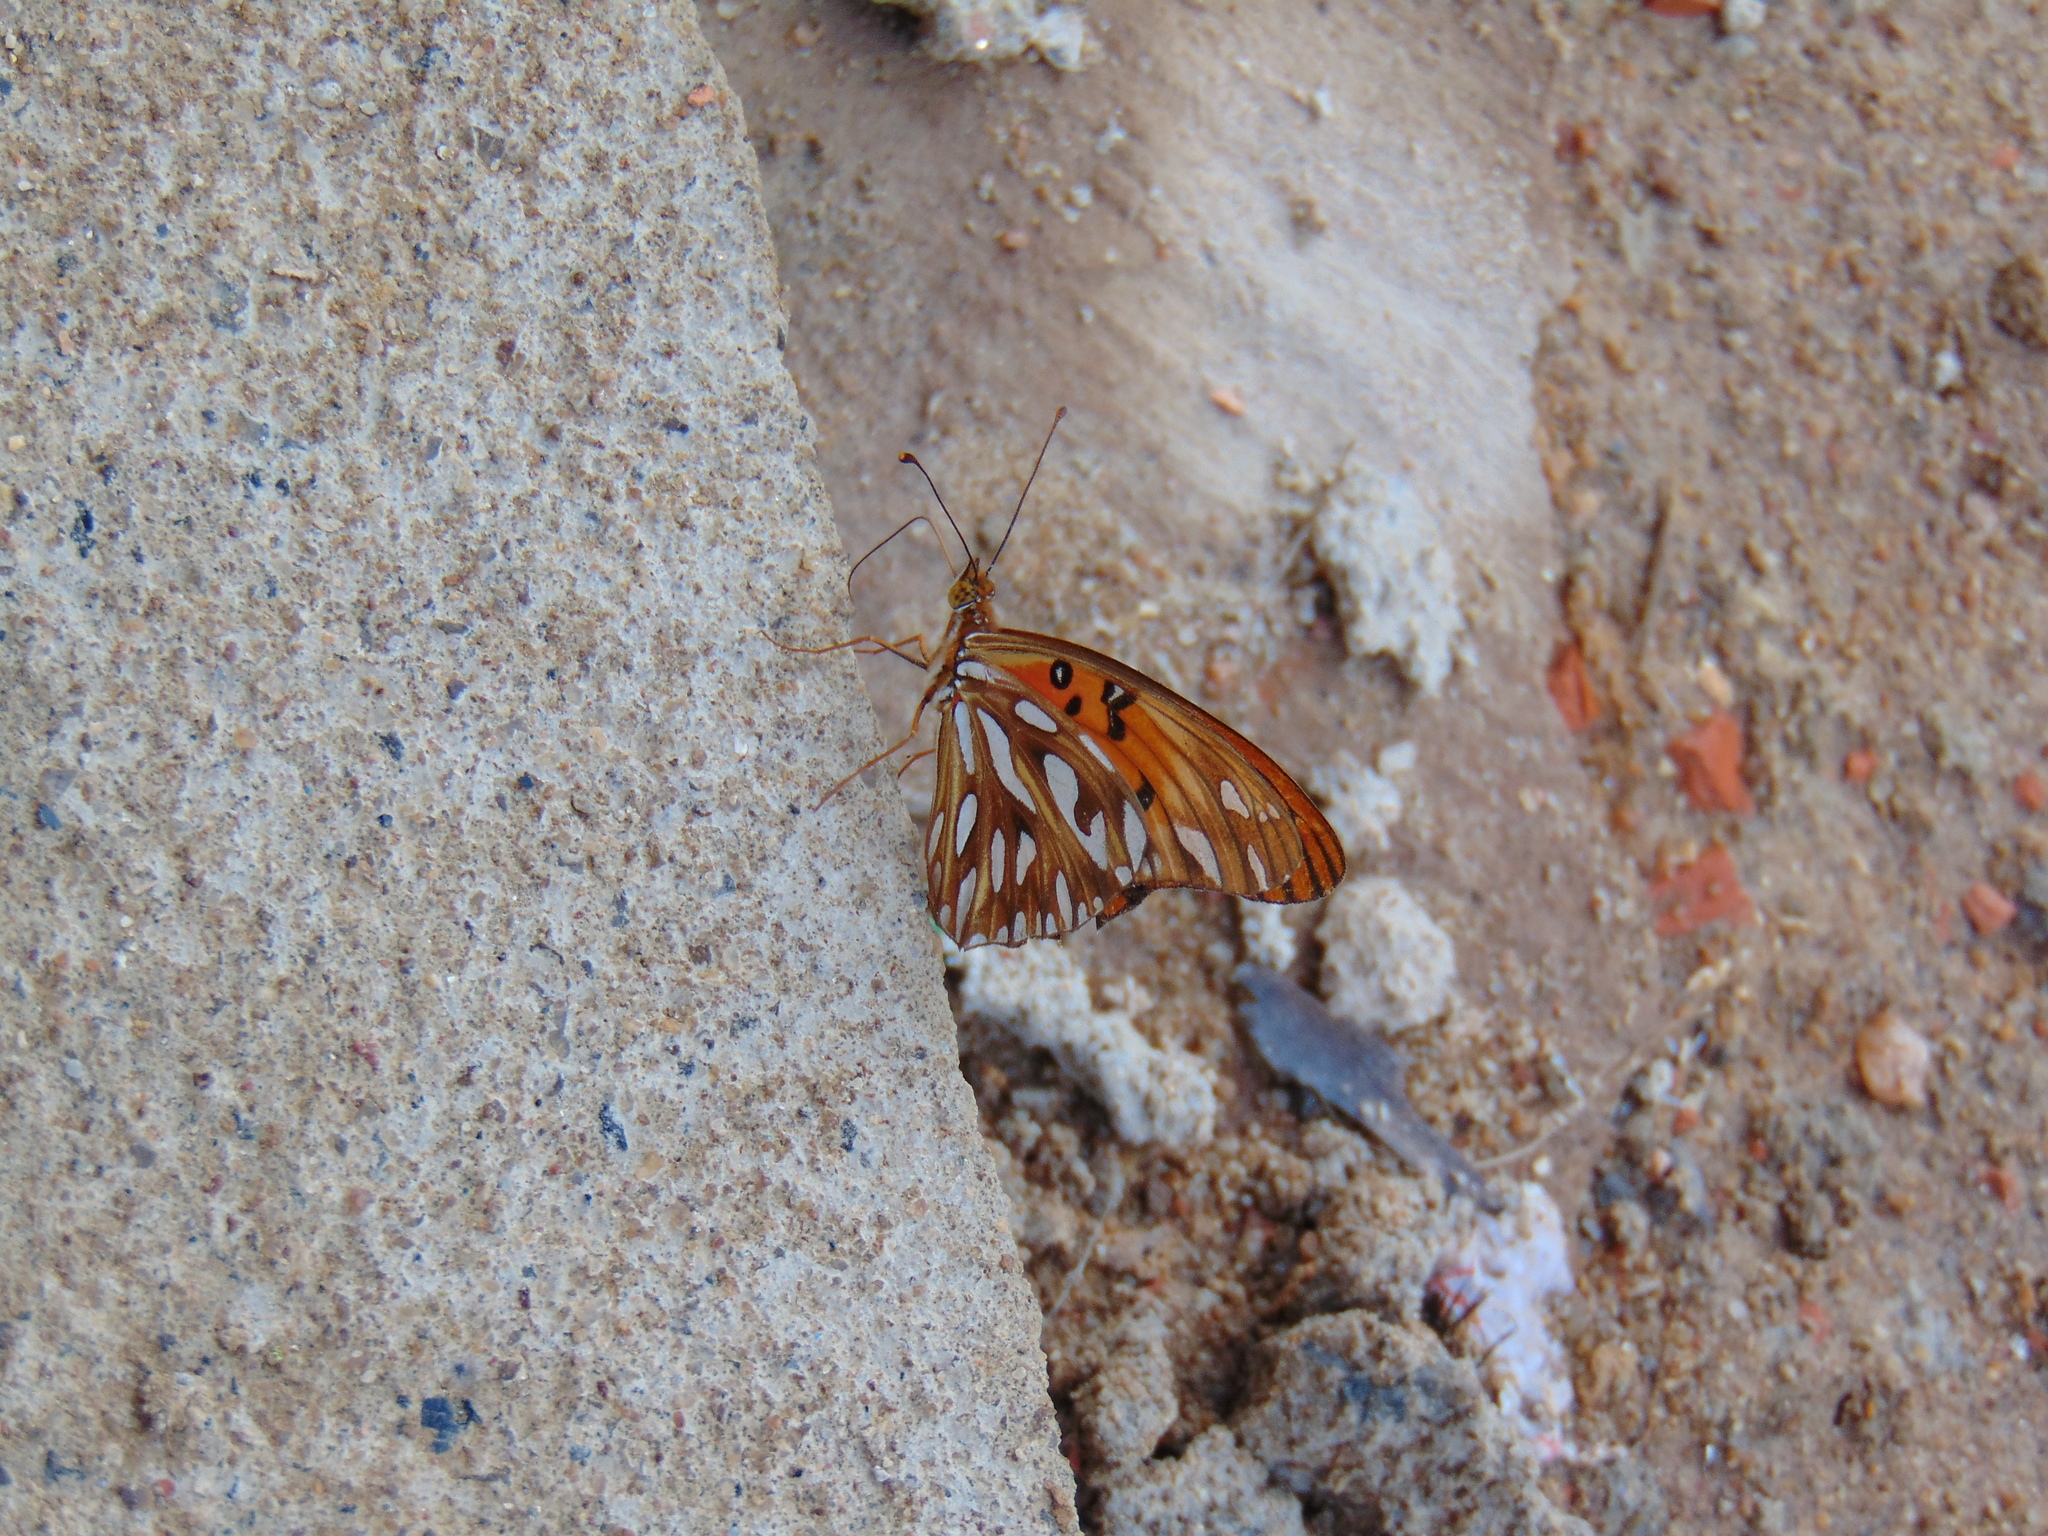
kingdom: Animalia
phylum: Arthropoda
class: Insecta
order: Lepidoptera
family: Nymphalidae
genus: Dione
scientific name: Dione vanillae
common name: Gulf fritillary
